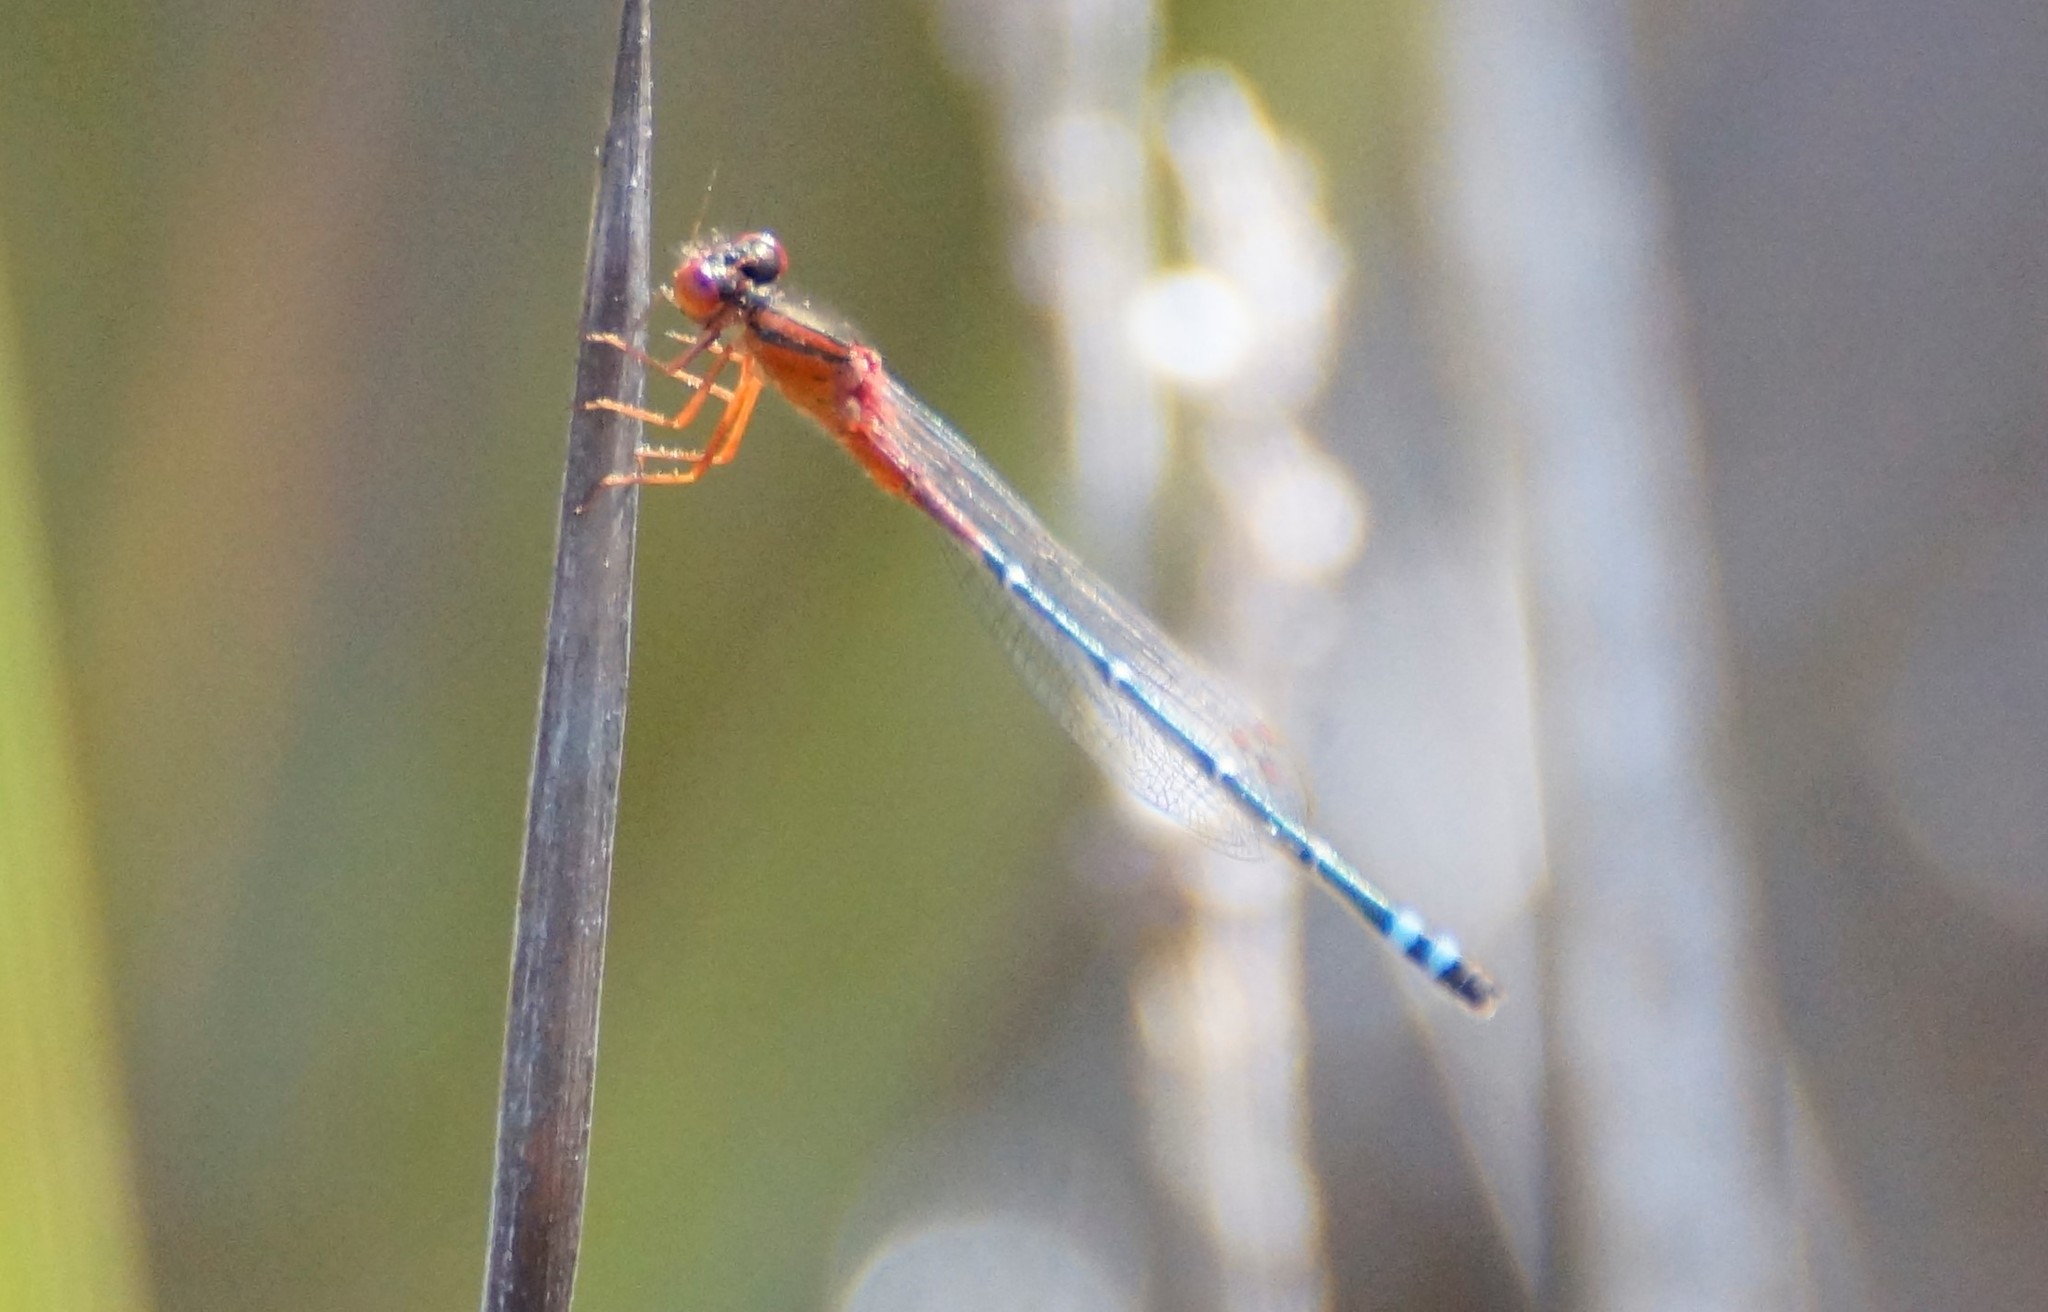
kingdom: Animalia
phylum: Arthropoda
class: Insecta
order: Odonata
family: Coenagrionidae
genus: Xanthagrion
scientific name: Xanthagrion erythroneurum
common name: Red and blue damsel
